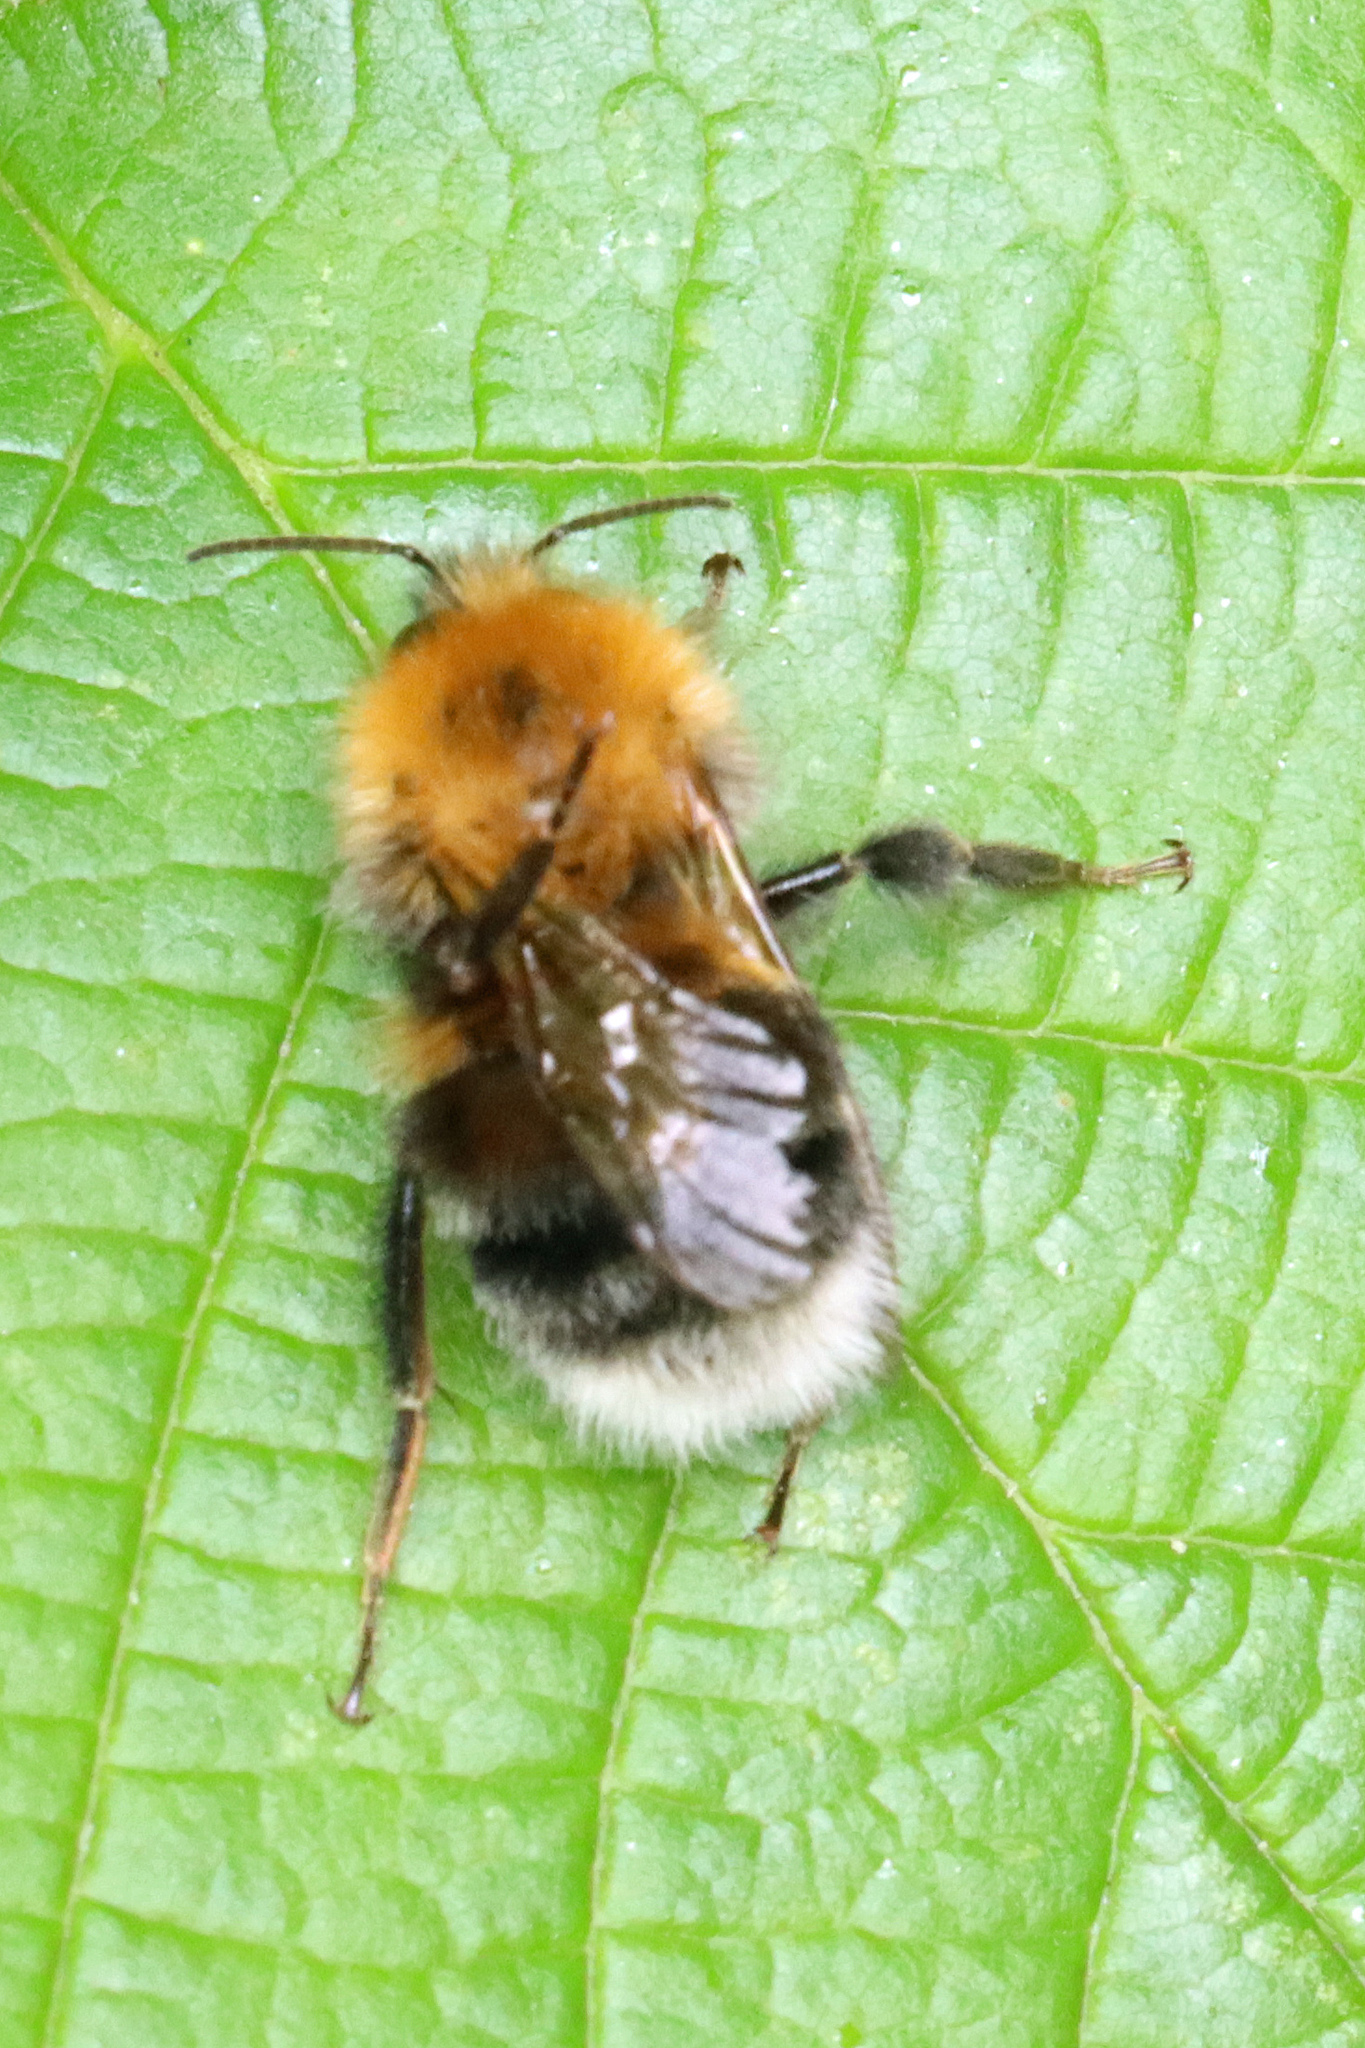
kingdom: Animalia
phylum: Arthropoda
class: Insecta
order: Hymenoptera
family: Apidae
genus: Bombus
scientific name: Bombus hypnorum
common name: New garden bumblebee
